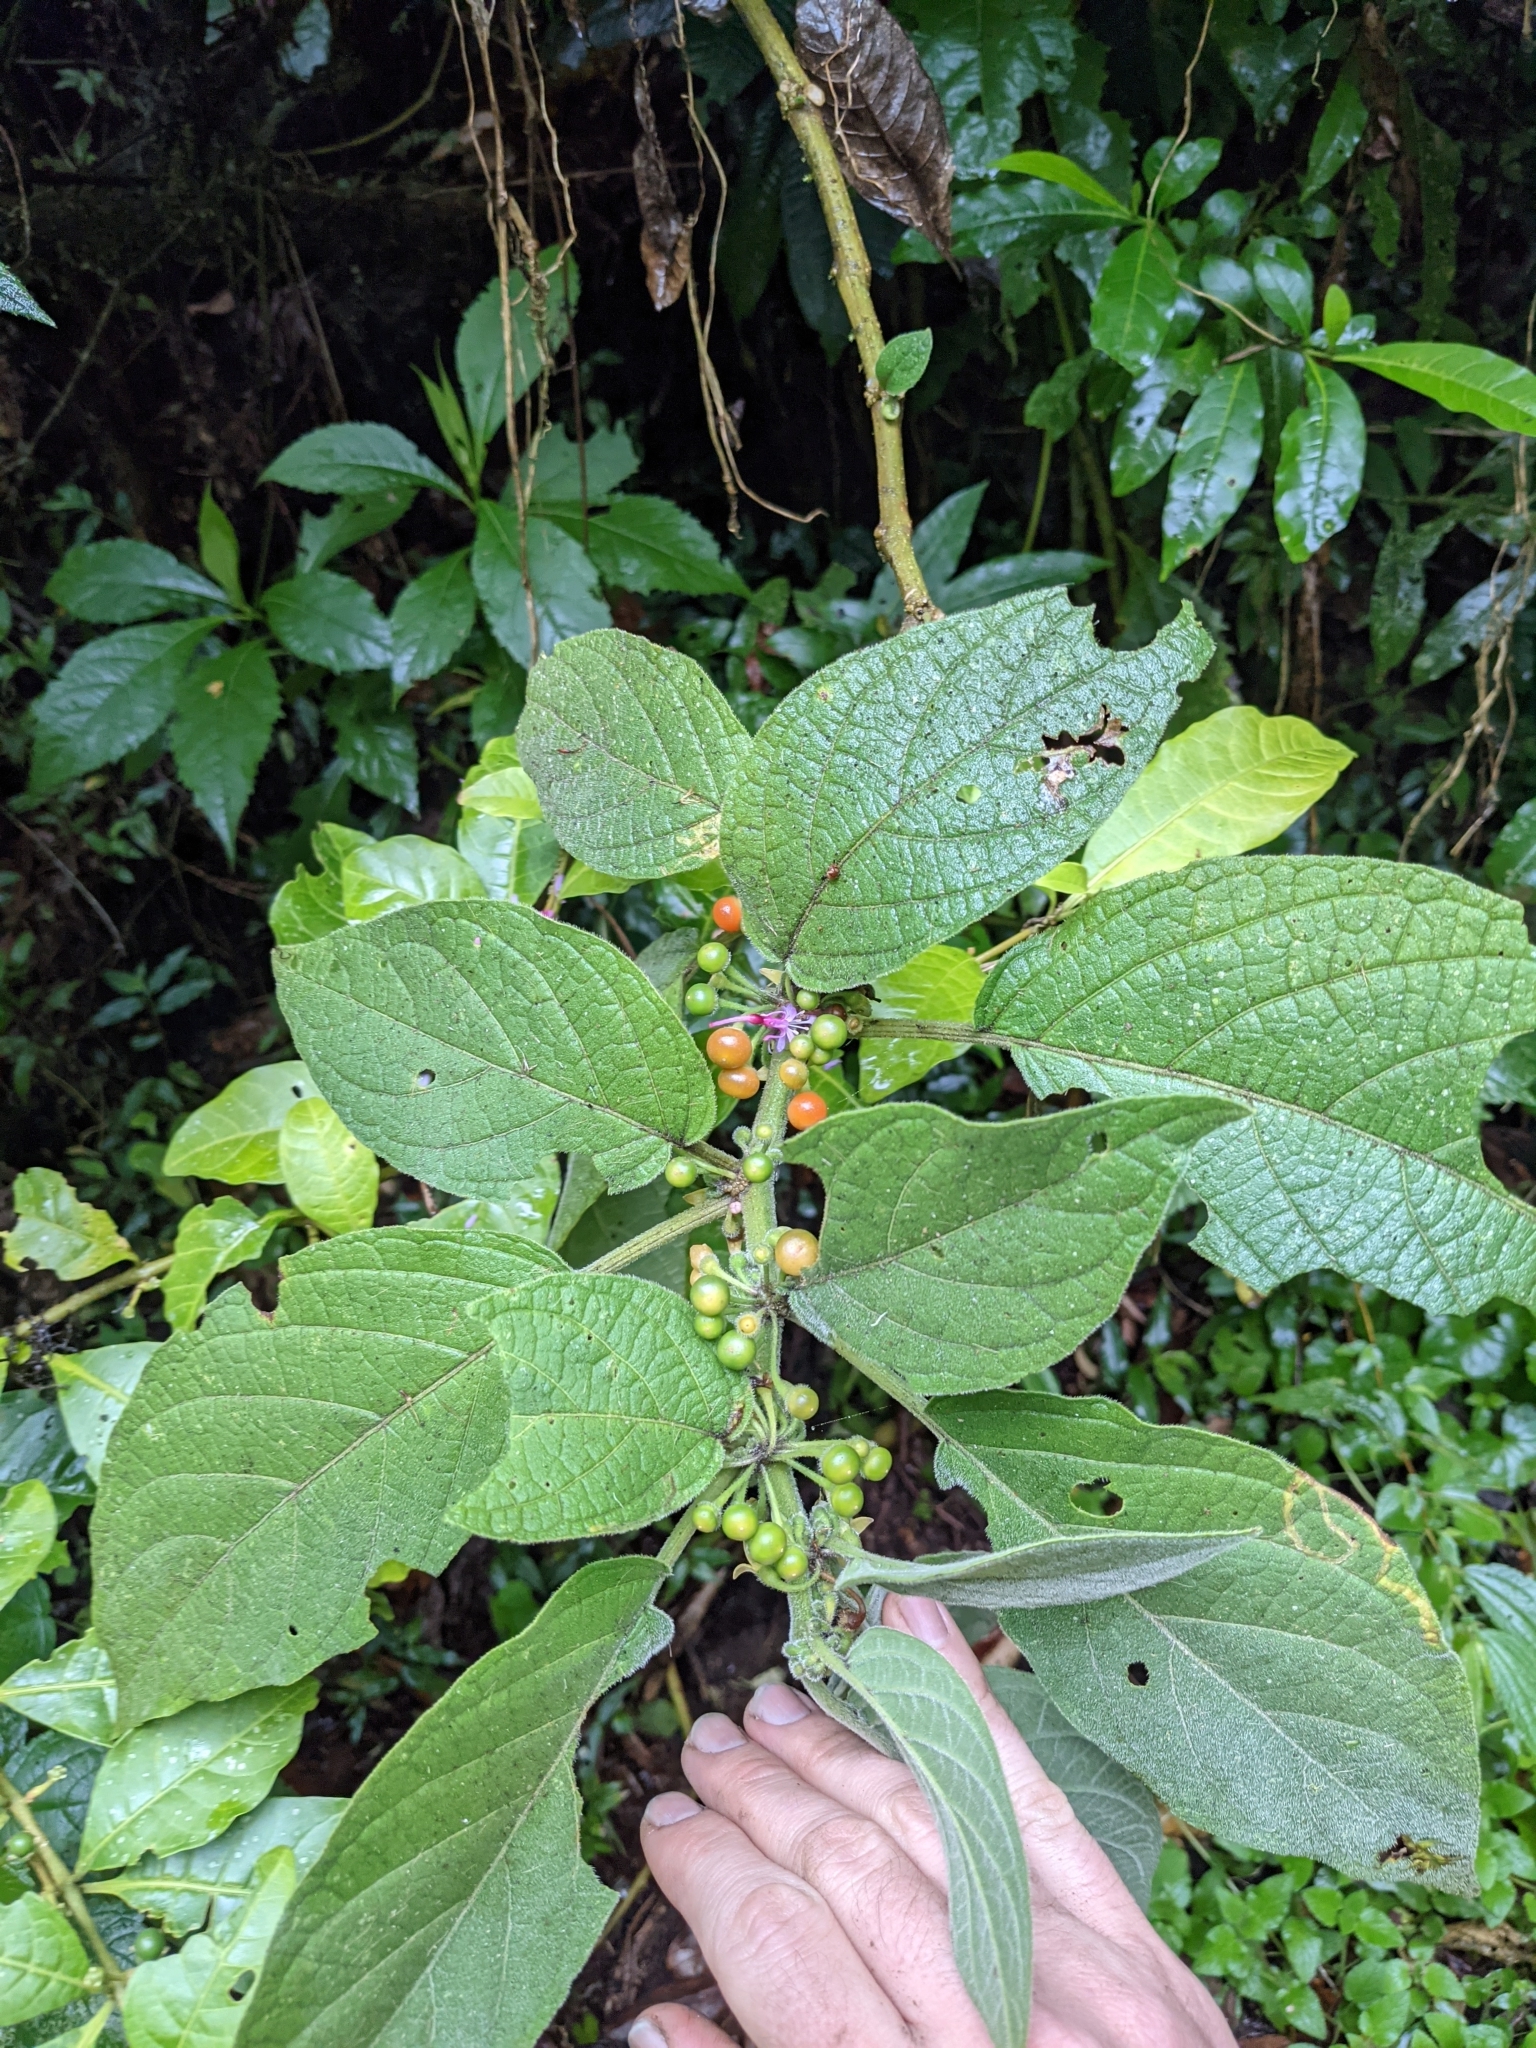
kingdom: Plantae
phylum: Tracheophyta
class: Magnoliopsida
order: Solanales
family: Solanaceae
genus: Witheringia
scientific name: Witheringia solanacea
